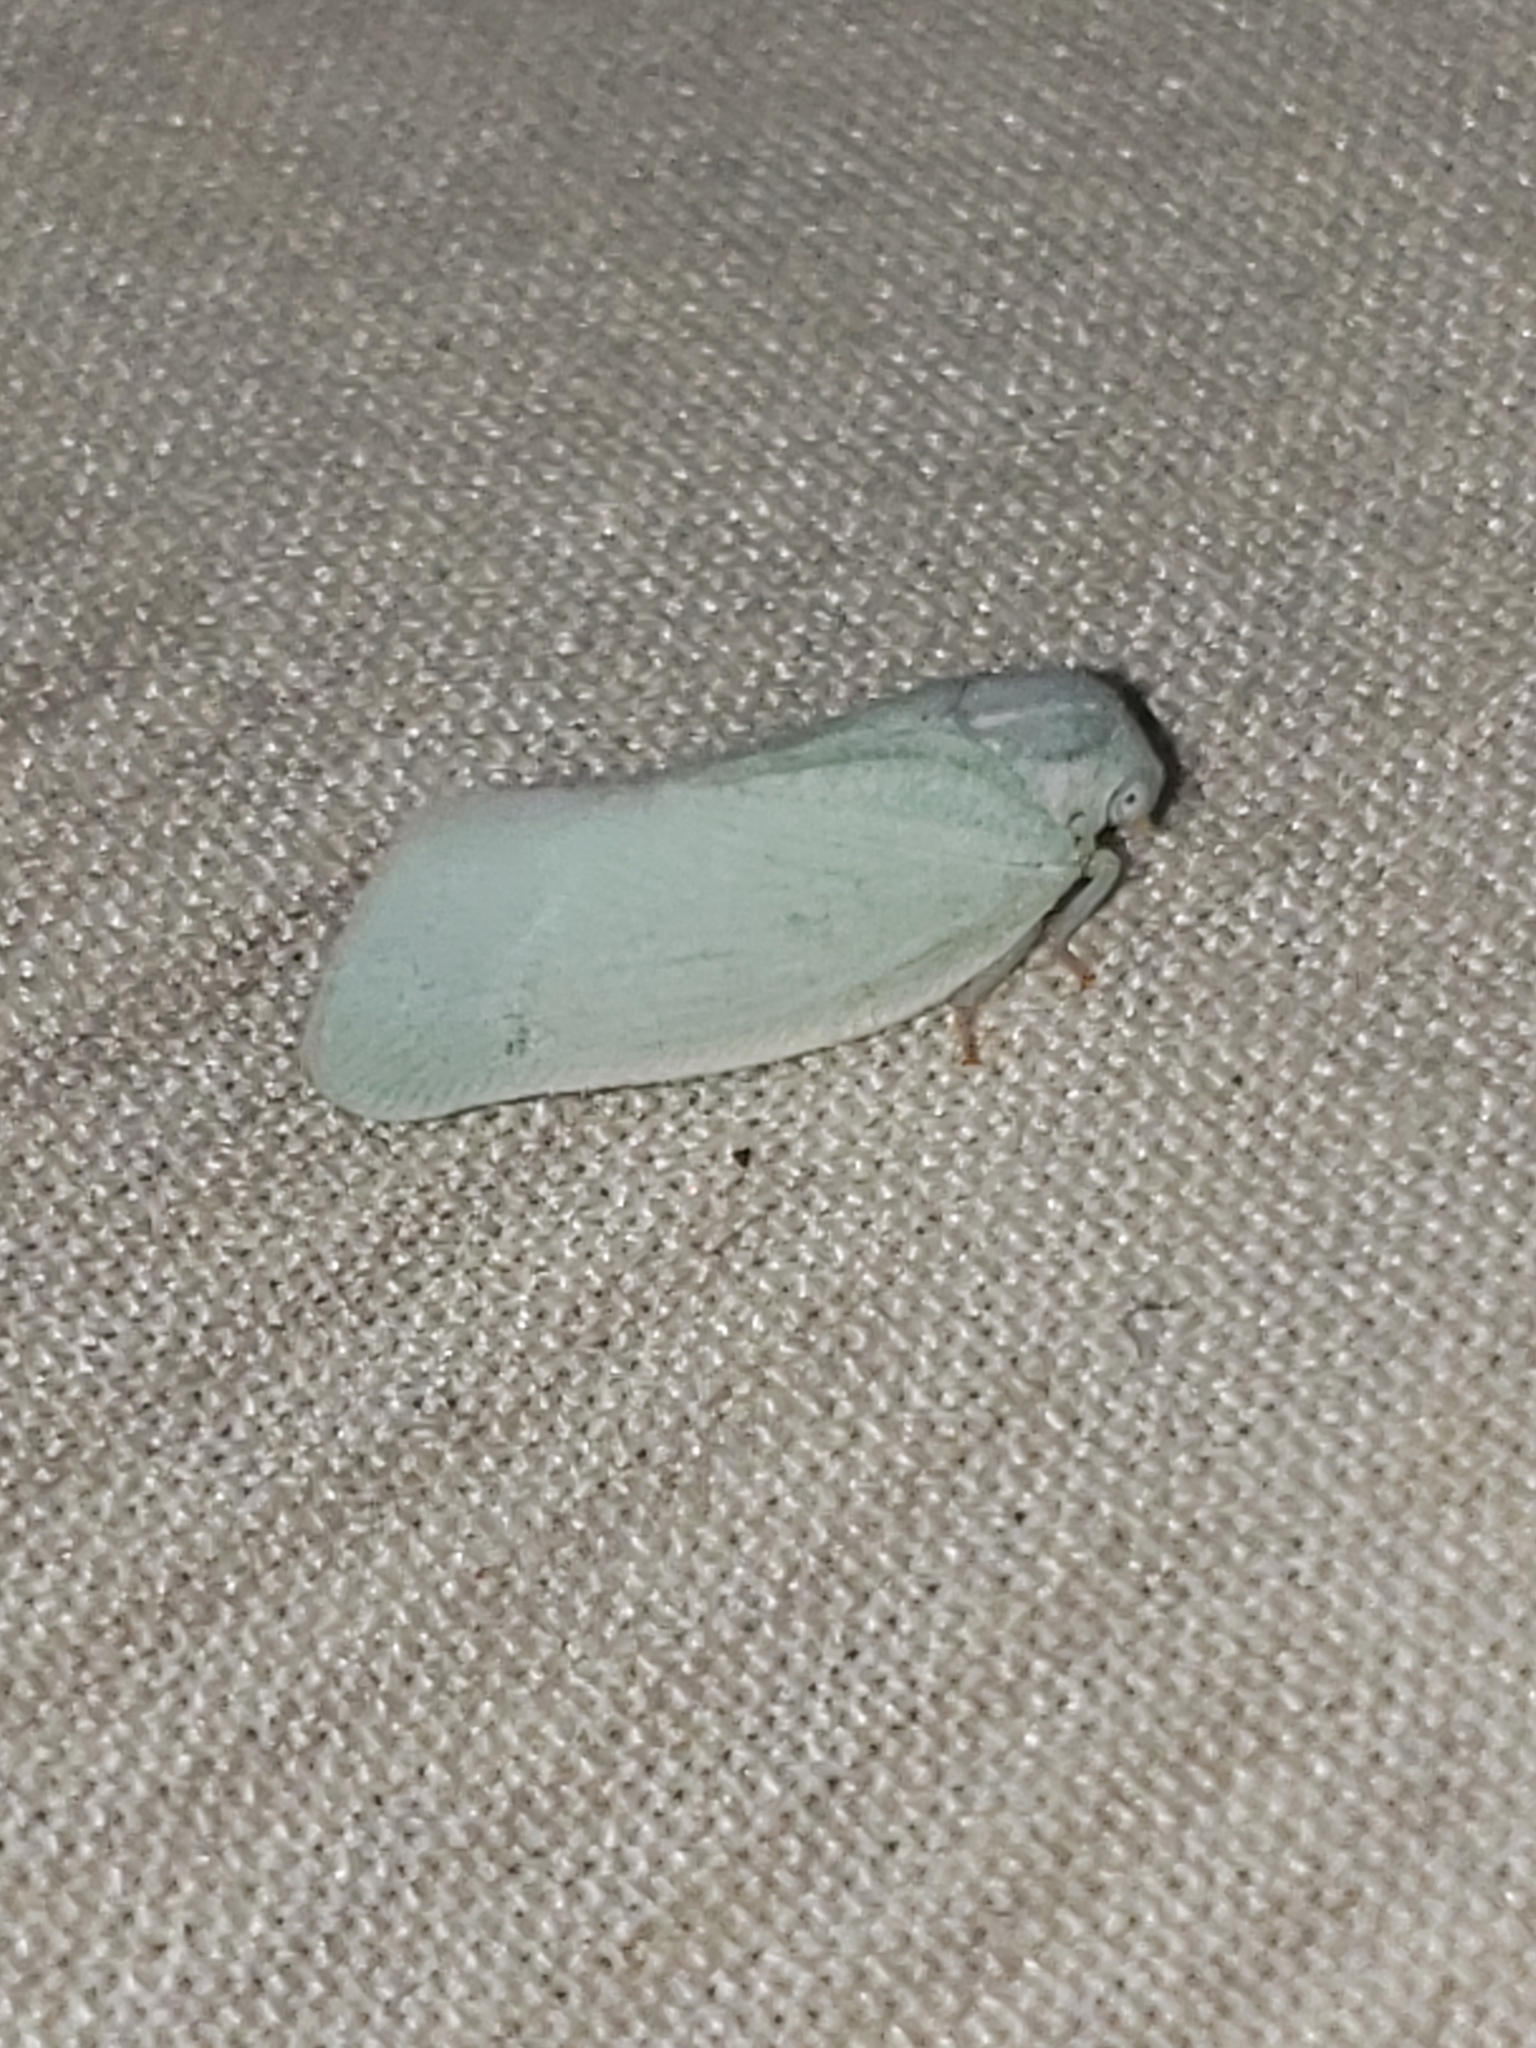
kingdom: Animalia
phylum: Arthropoda
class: Insecta
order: Hemiptera
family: Flatidae
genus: Flatormenis
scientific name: Flatormenis proxima
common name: Northern flatid planthopper
